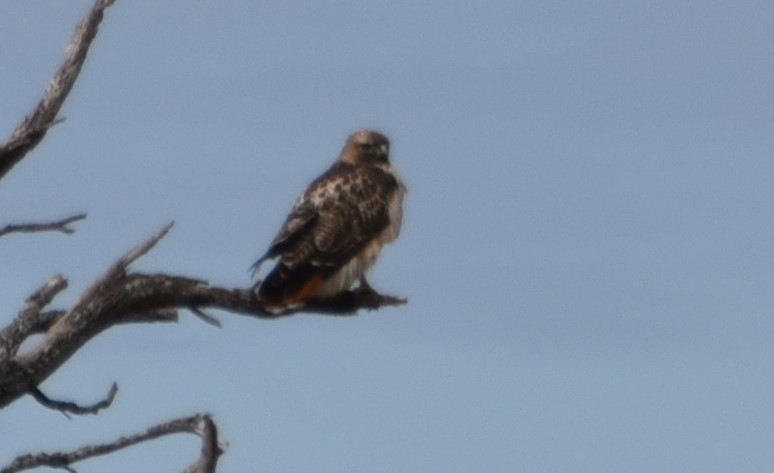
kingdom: Animalia
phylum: Chordata
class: Aves
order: Accipitriformes
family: Accipitridae
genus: Buteo
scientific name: Buteo jamaicensis
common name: Red-tailed hawk
